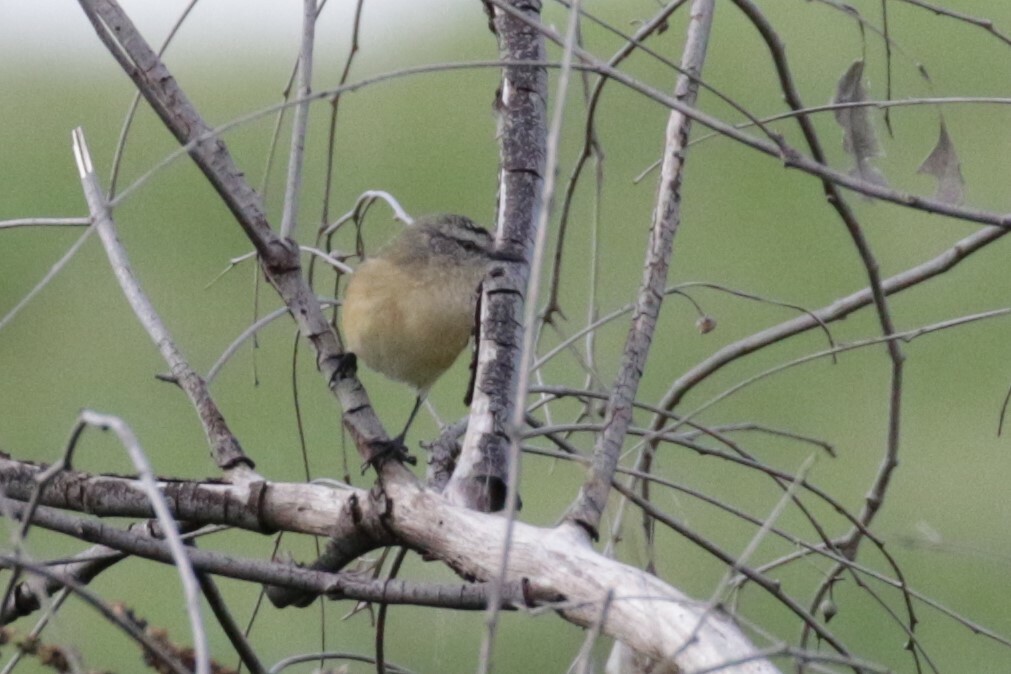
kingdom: Animalia
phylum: Chordata
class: Aves
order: Passeriformes
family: Acanthizidae
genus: Acanthiza
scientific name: Acanthiza chrysorrhoa
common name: Yellow-rumped thornbill
